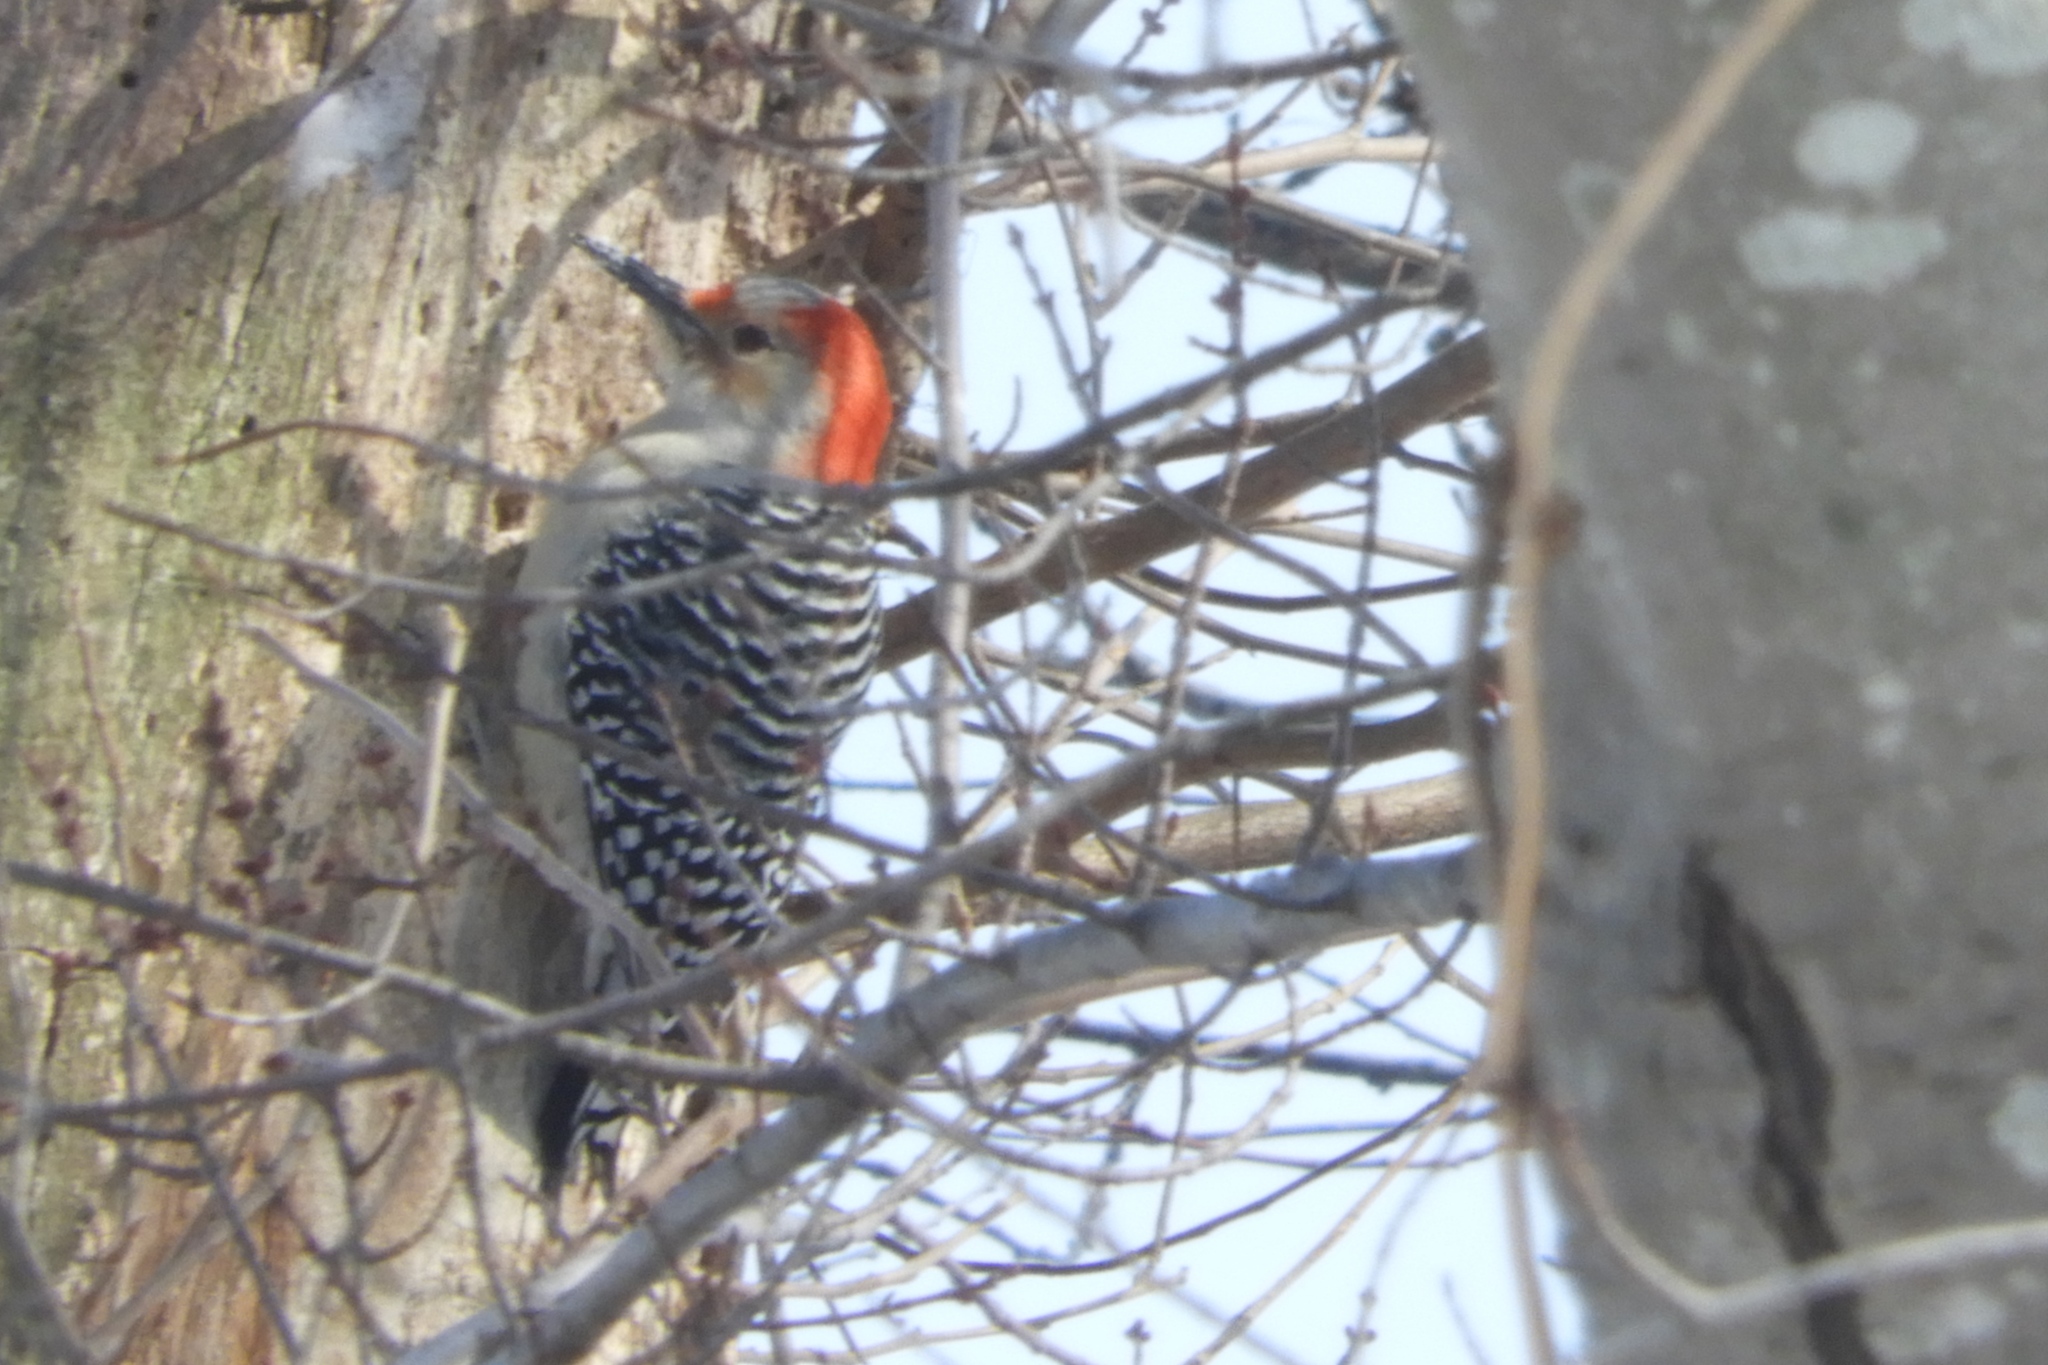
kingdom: Animalia
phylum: Chordata
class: Aves
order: Piciformes
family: Picidae
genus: Melanerpes
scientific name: Melanerpes carolinus
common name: Red-bellied woodpecker
